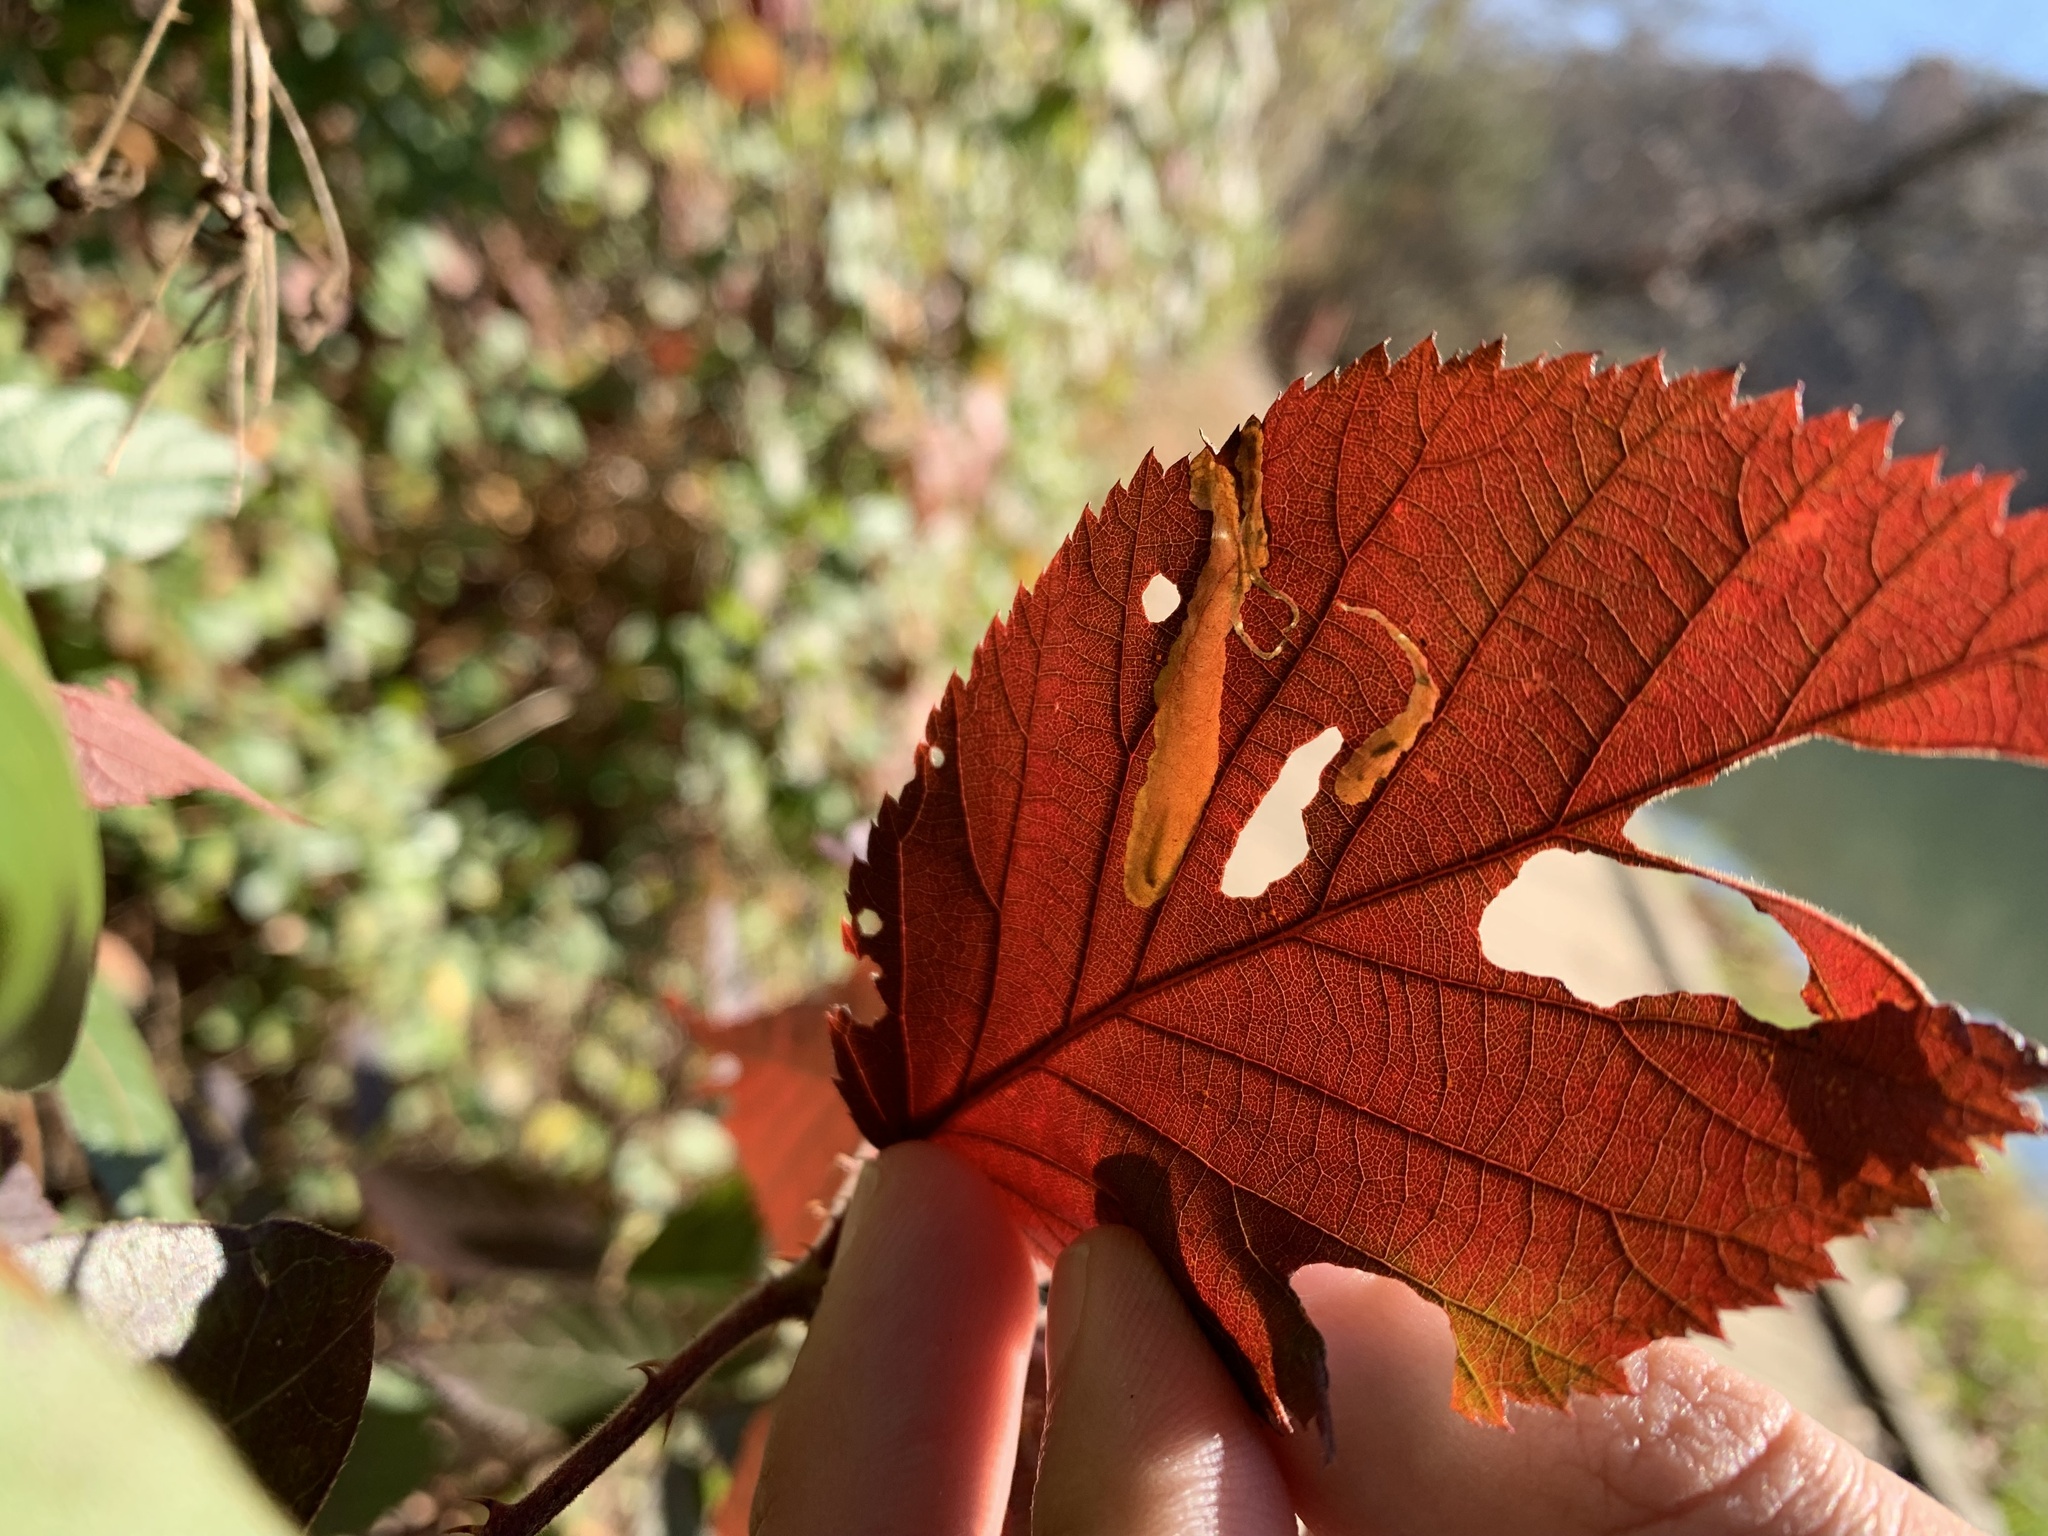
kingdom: Animalia
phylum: Arthropoda
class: Insecta
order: Lepidoptera
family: Tischeriidae
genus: Coptotriche
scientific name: Coptotriche aenea
